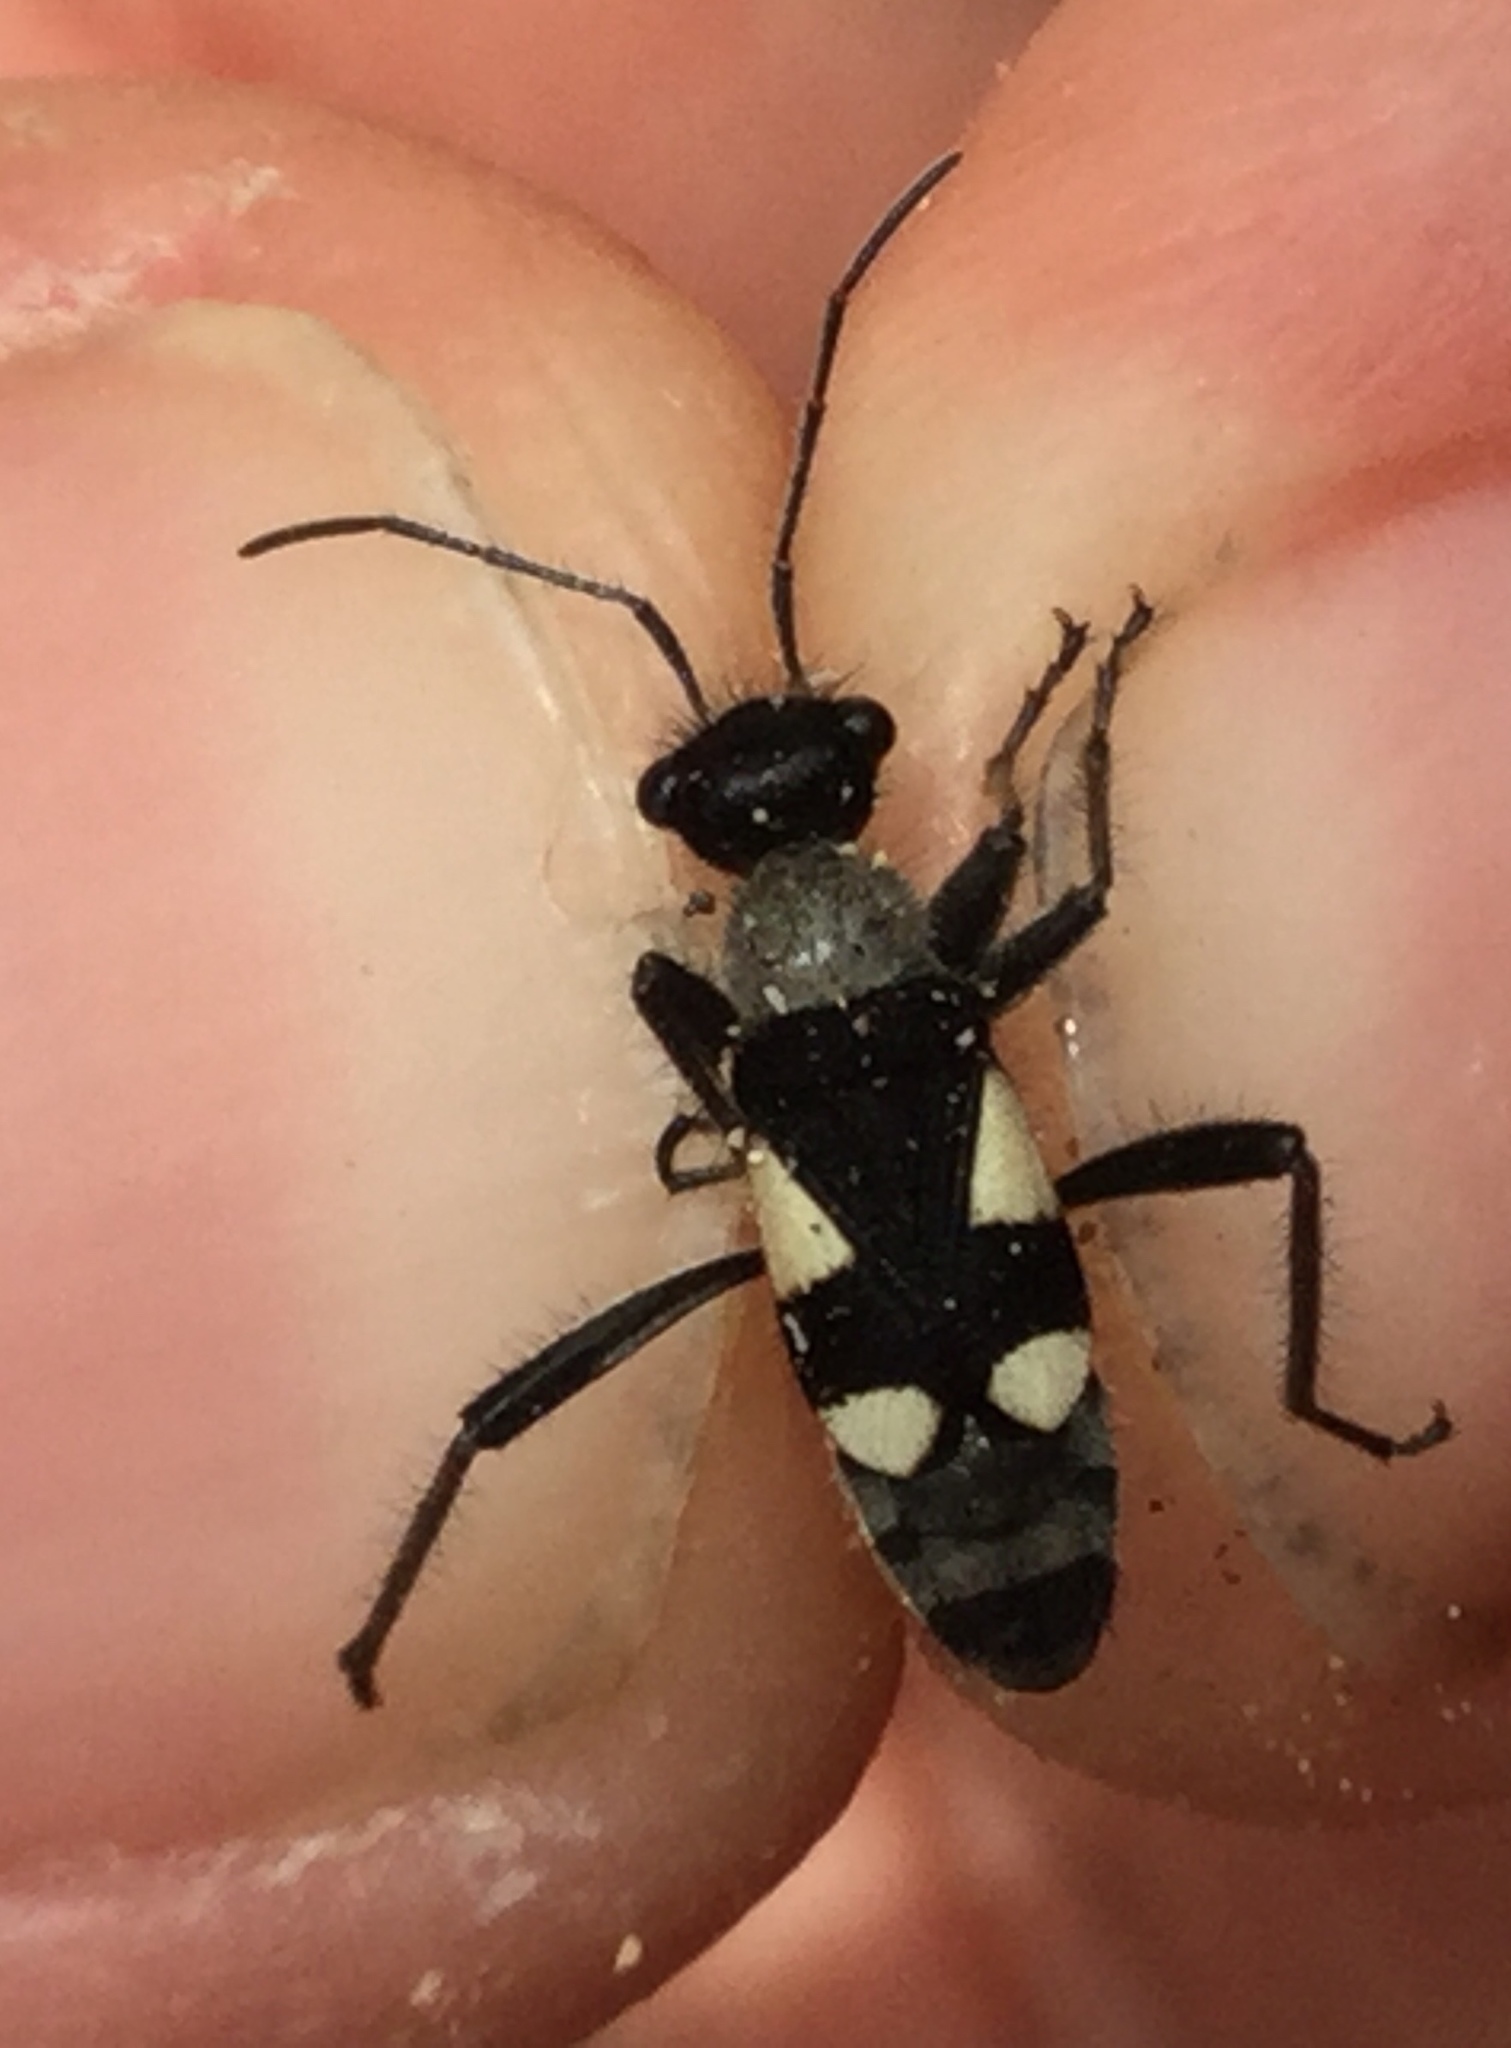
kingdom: Animalia
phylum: Arthropoda
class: Insecta
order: Hemiptera
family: Largidae
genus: Arhaphe
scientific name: Arhaphe arguta
